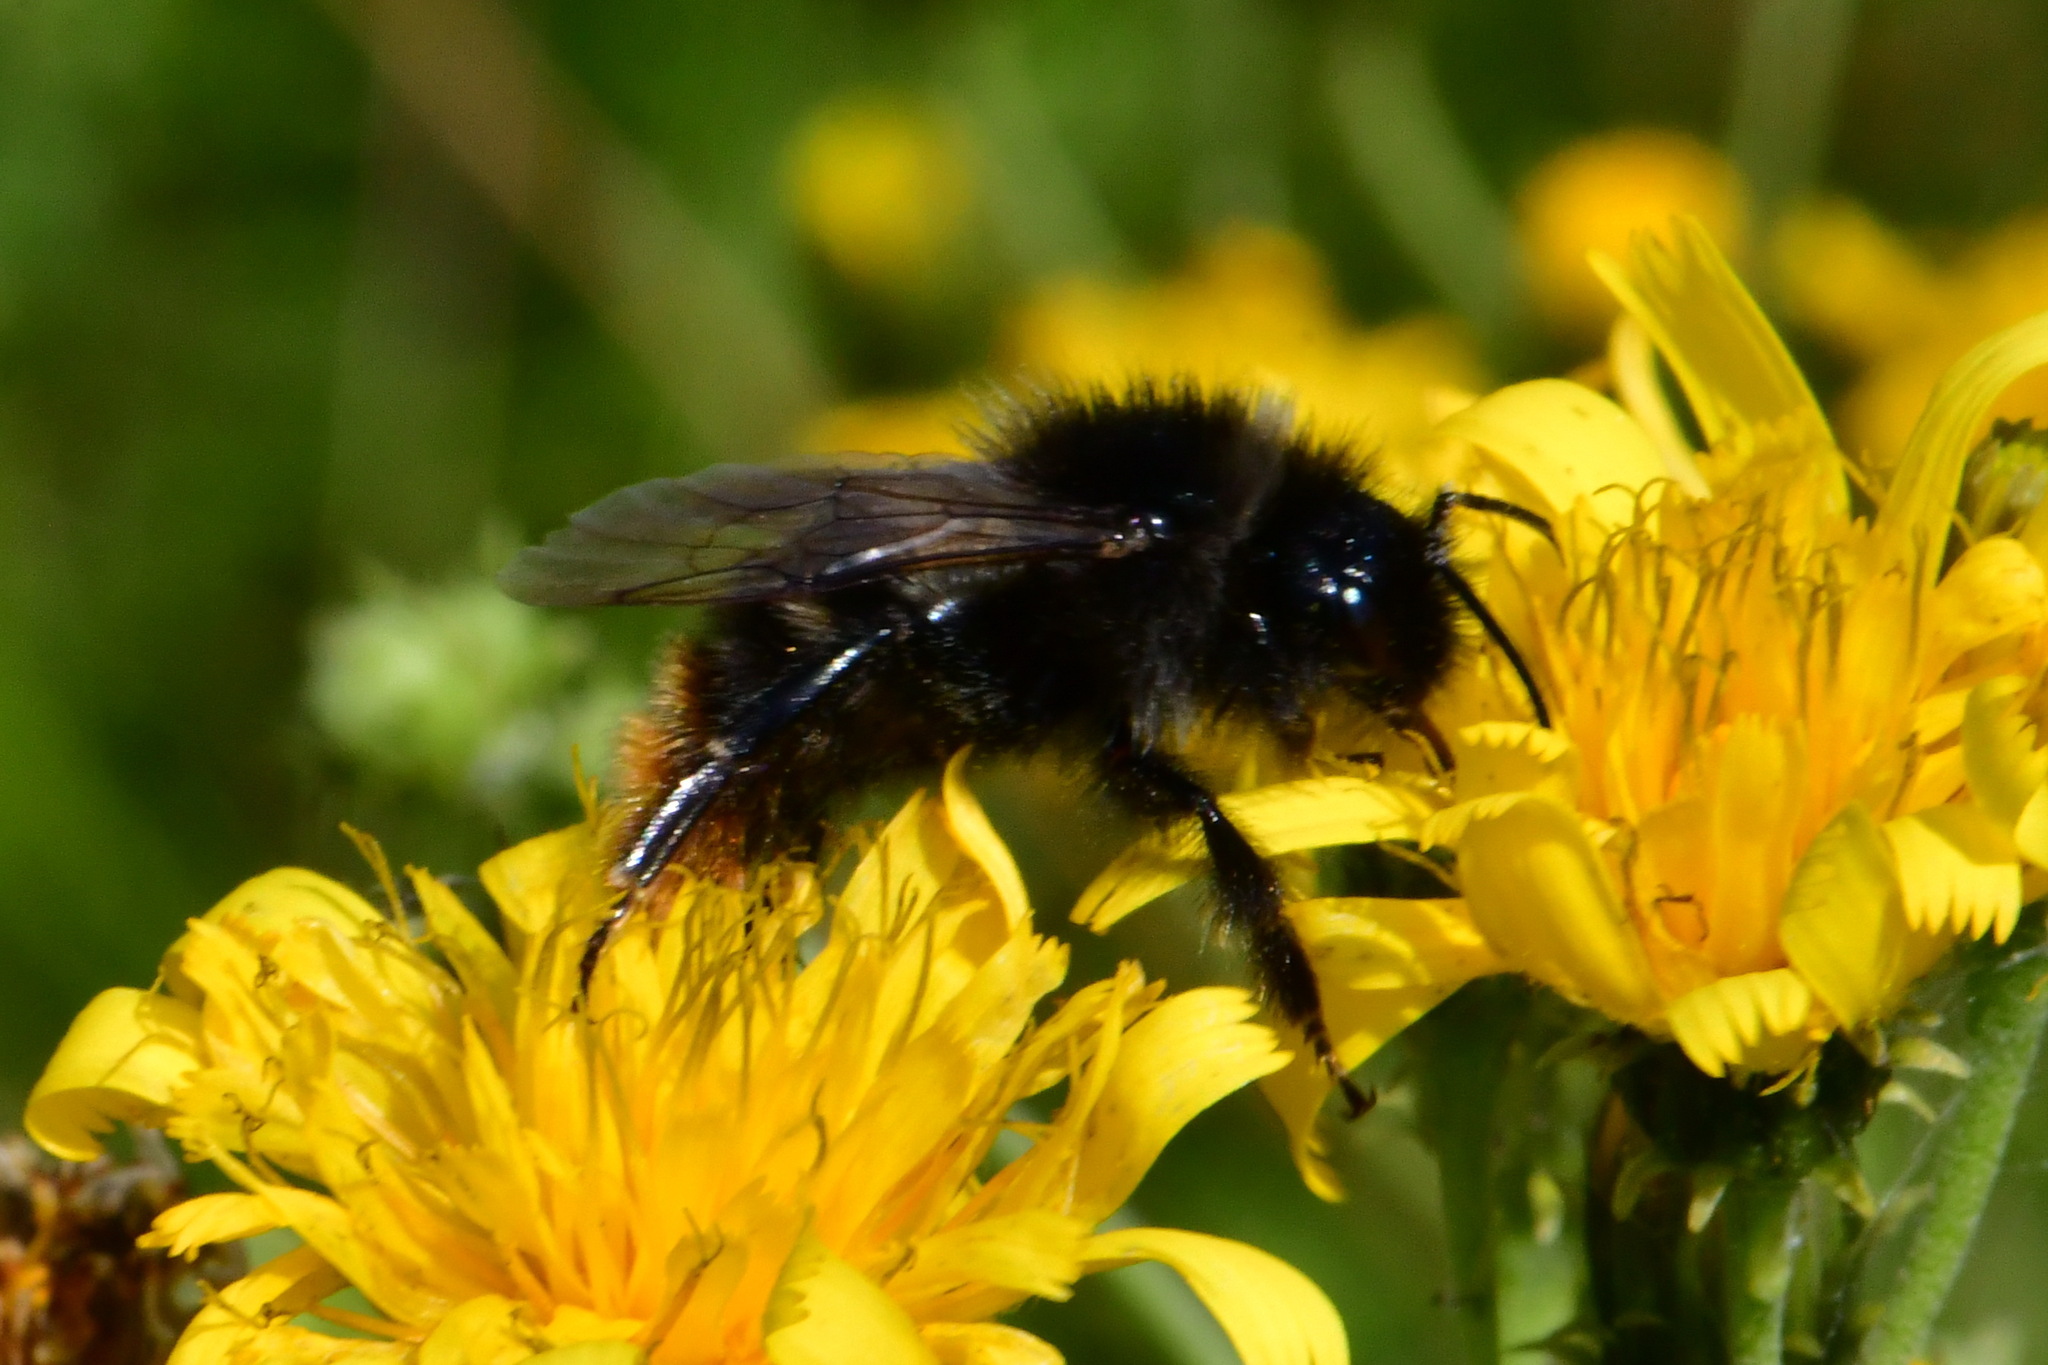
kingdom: Animalia
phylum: Arthropoda
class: Insecta
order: Hymenoptera
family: Apidae
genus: Bombus
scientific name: Bombus rupestris
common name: Hill cuckoo-bee
